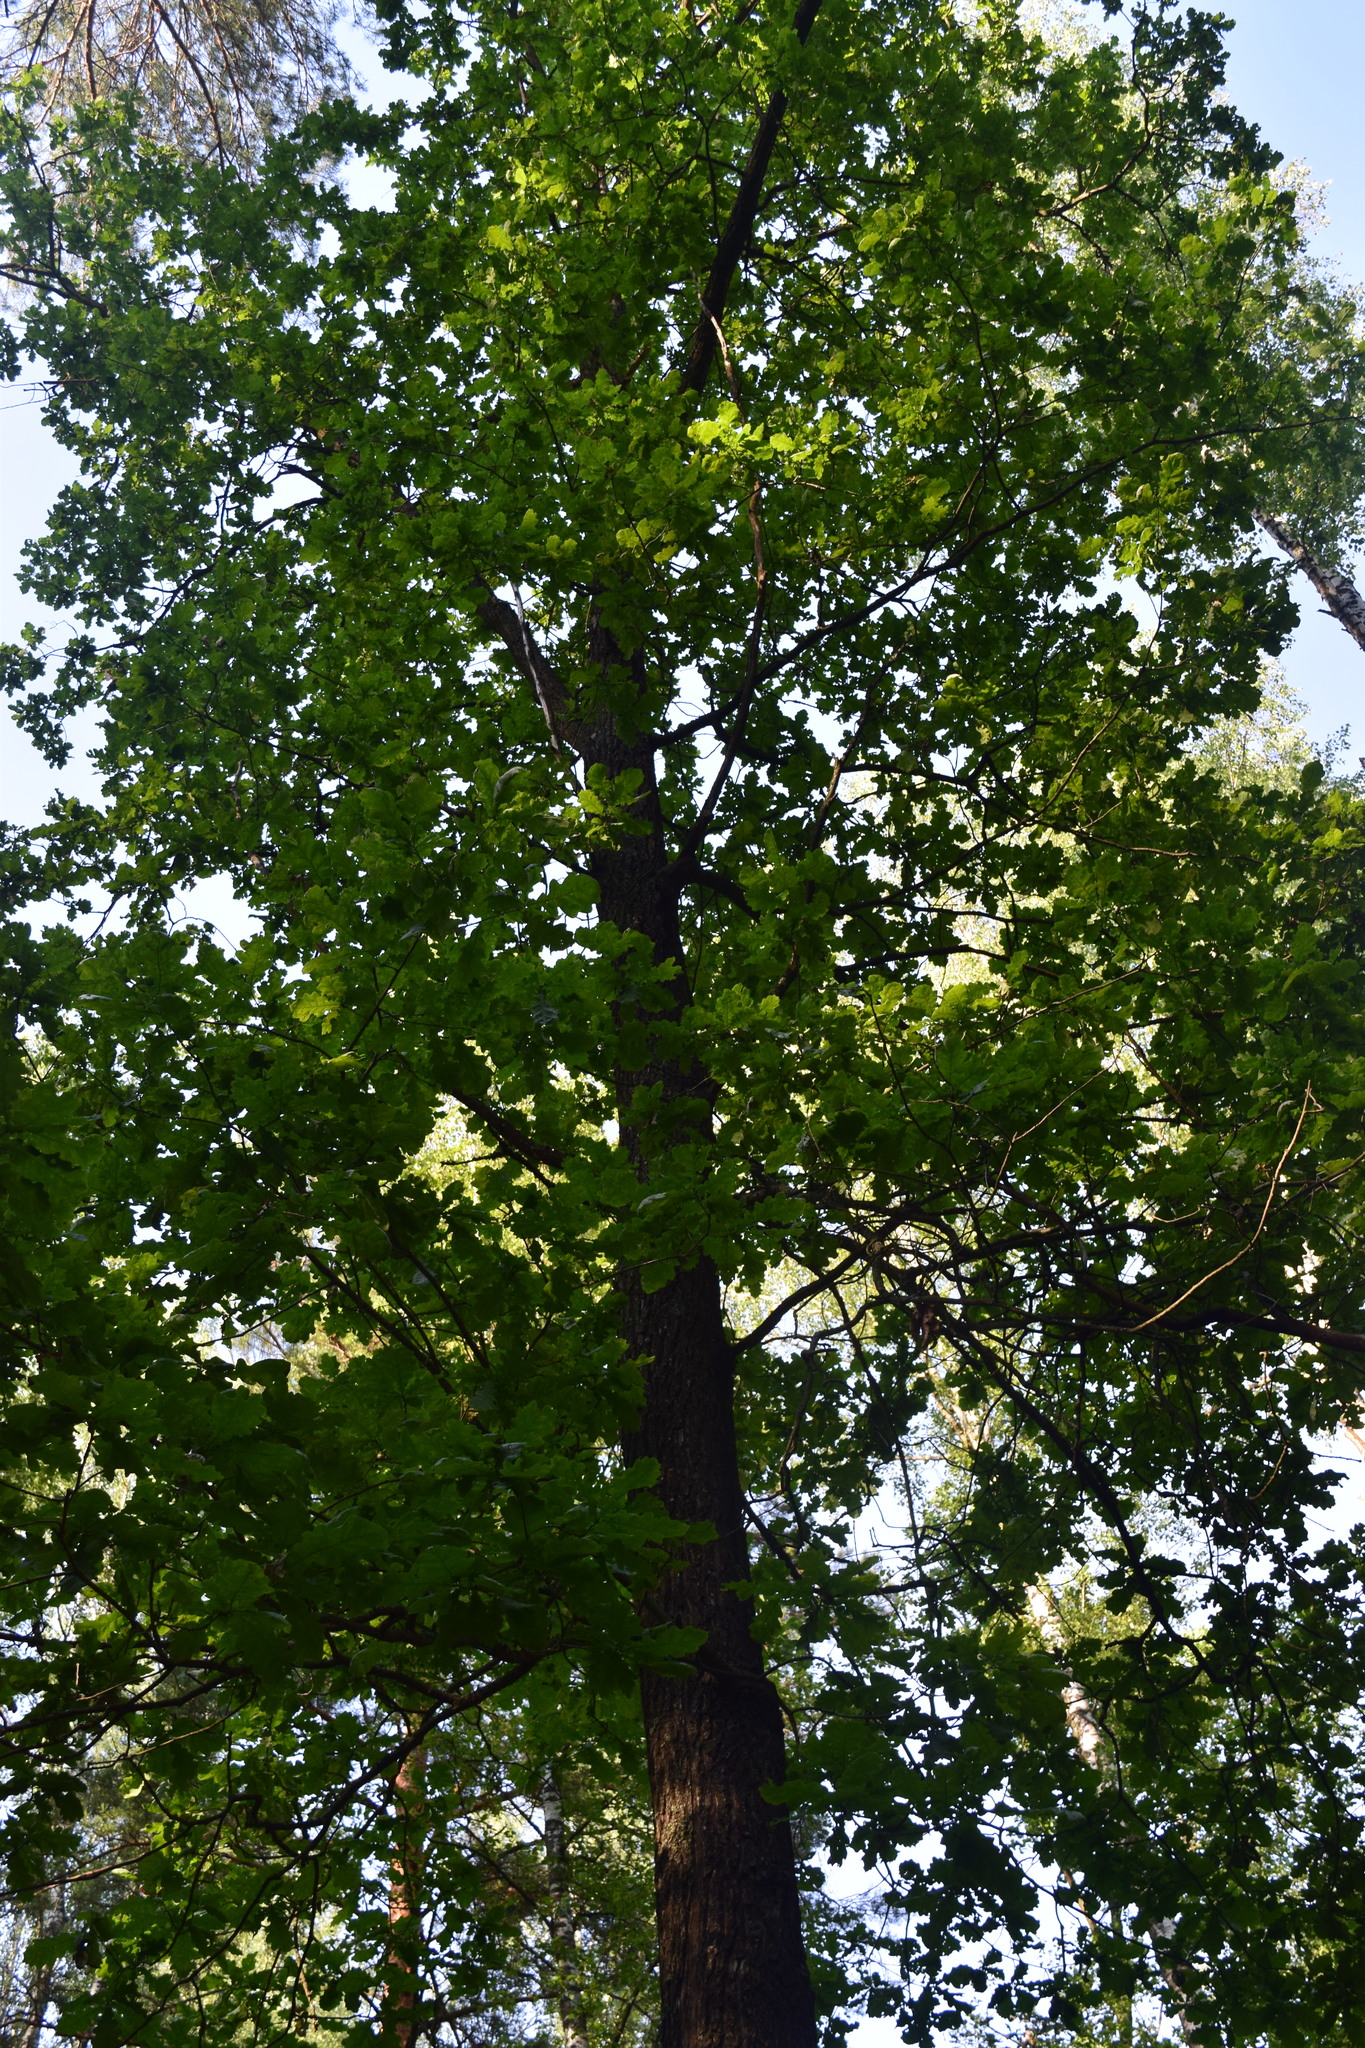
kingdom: Plantae
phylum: Tracheophyta
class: Magnoliopsida
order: Fagales
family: Fagaceae
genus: Quercus
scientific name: Quercus robur
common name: Pedunculate oak
